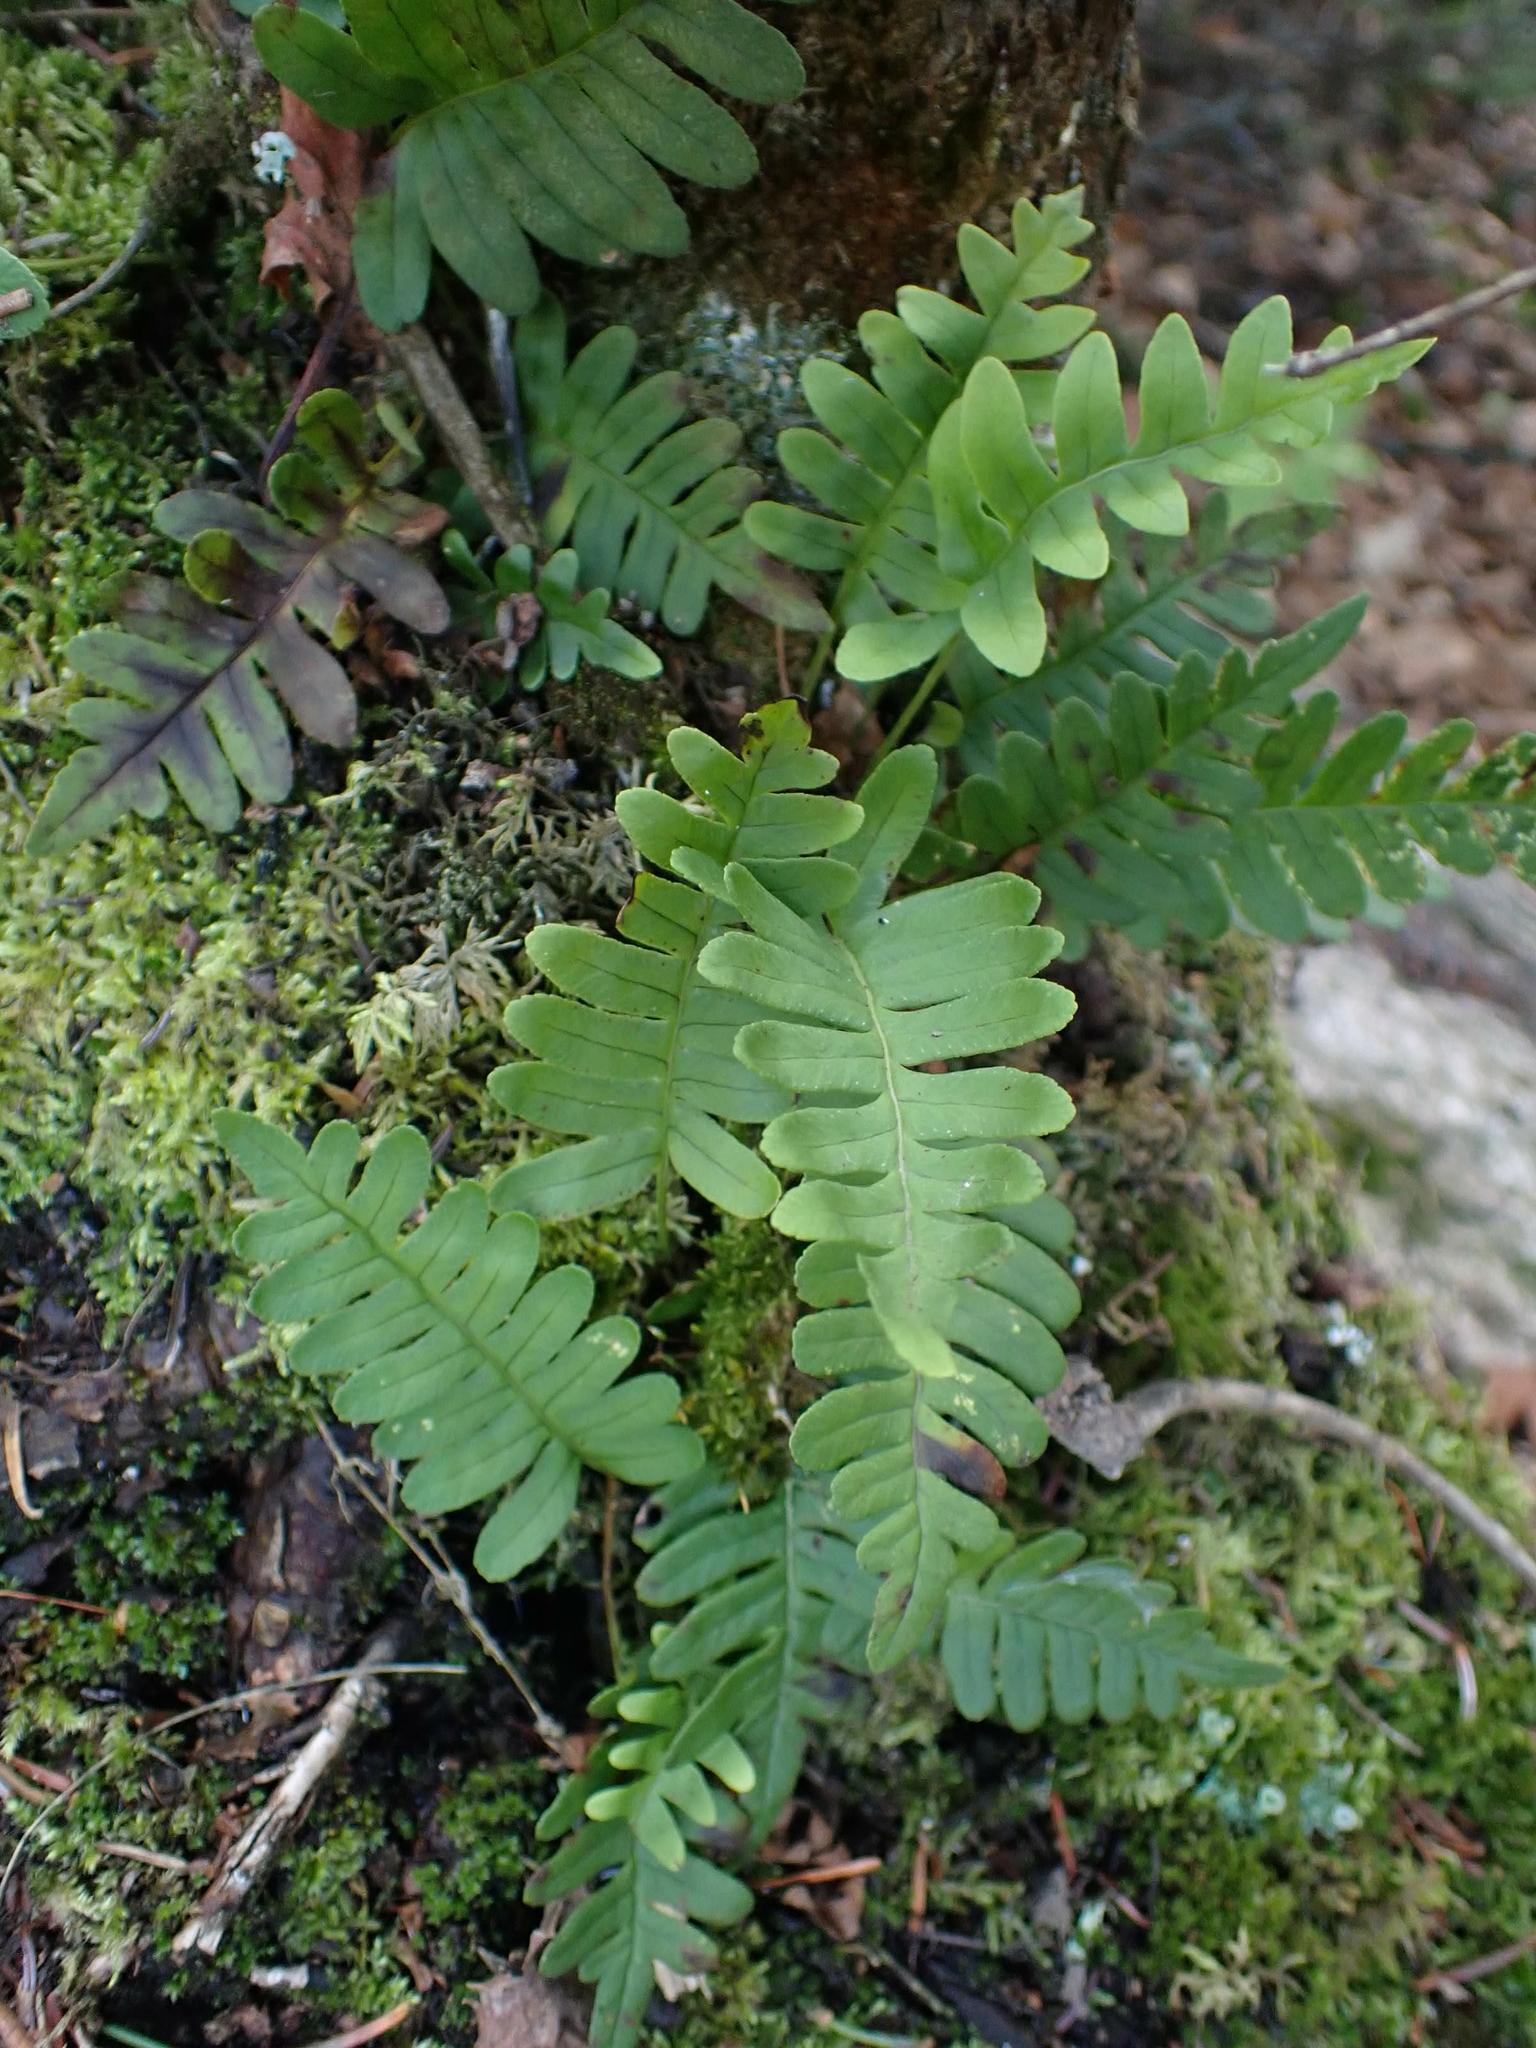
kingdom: Plantae
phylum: Tracheophyta
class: Polypodiopsida
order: Polypodiales
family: Polypodiaceae
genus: Polypodium
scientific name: Polypodium virginianum
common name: American wall fern
